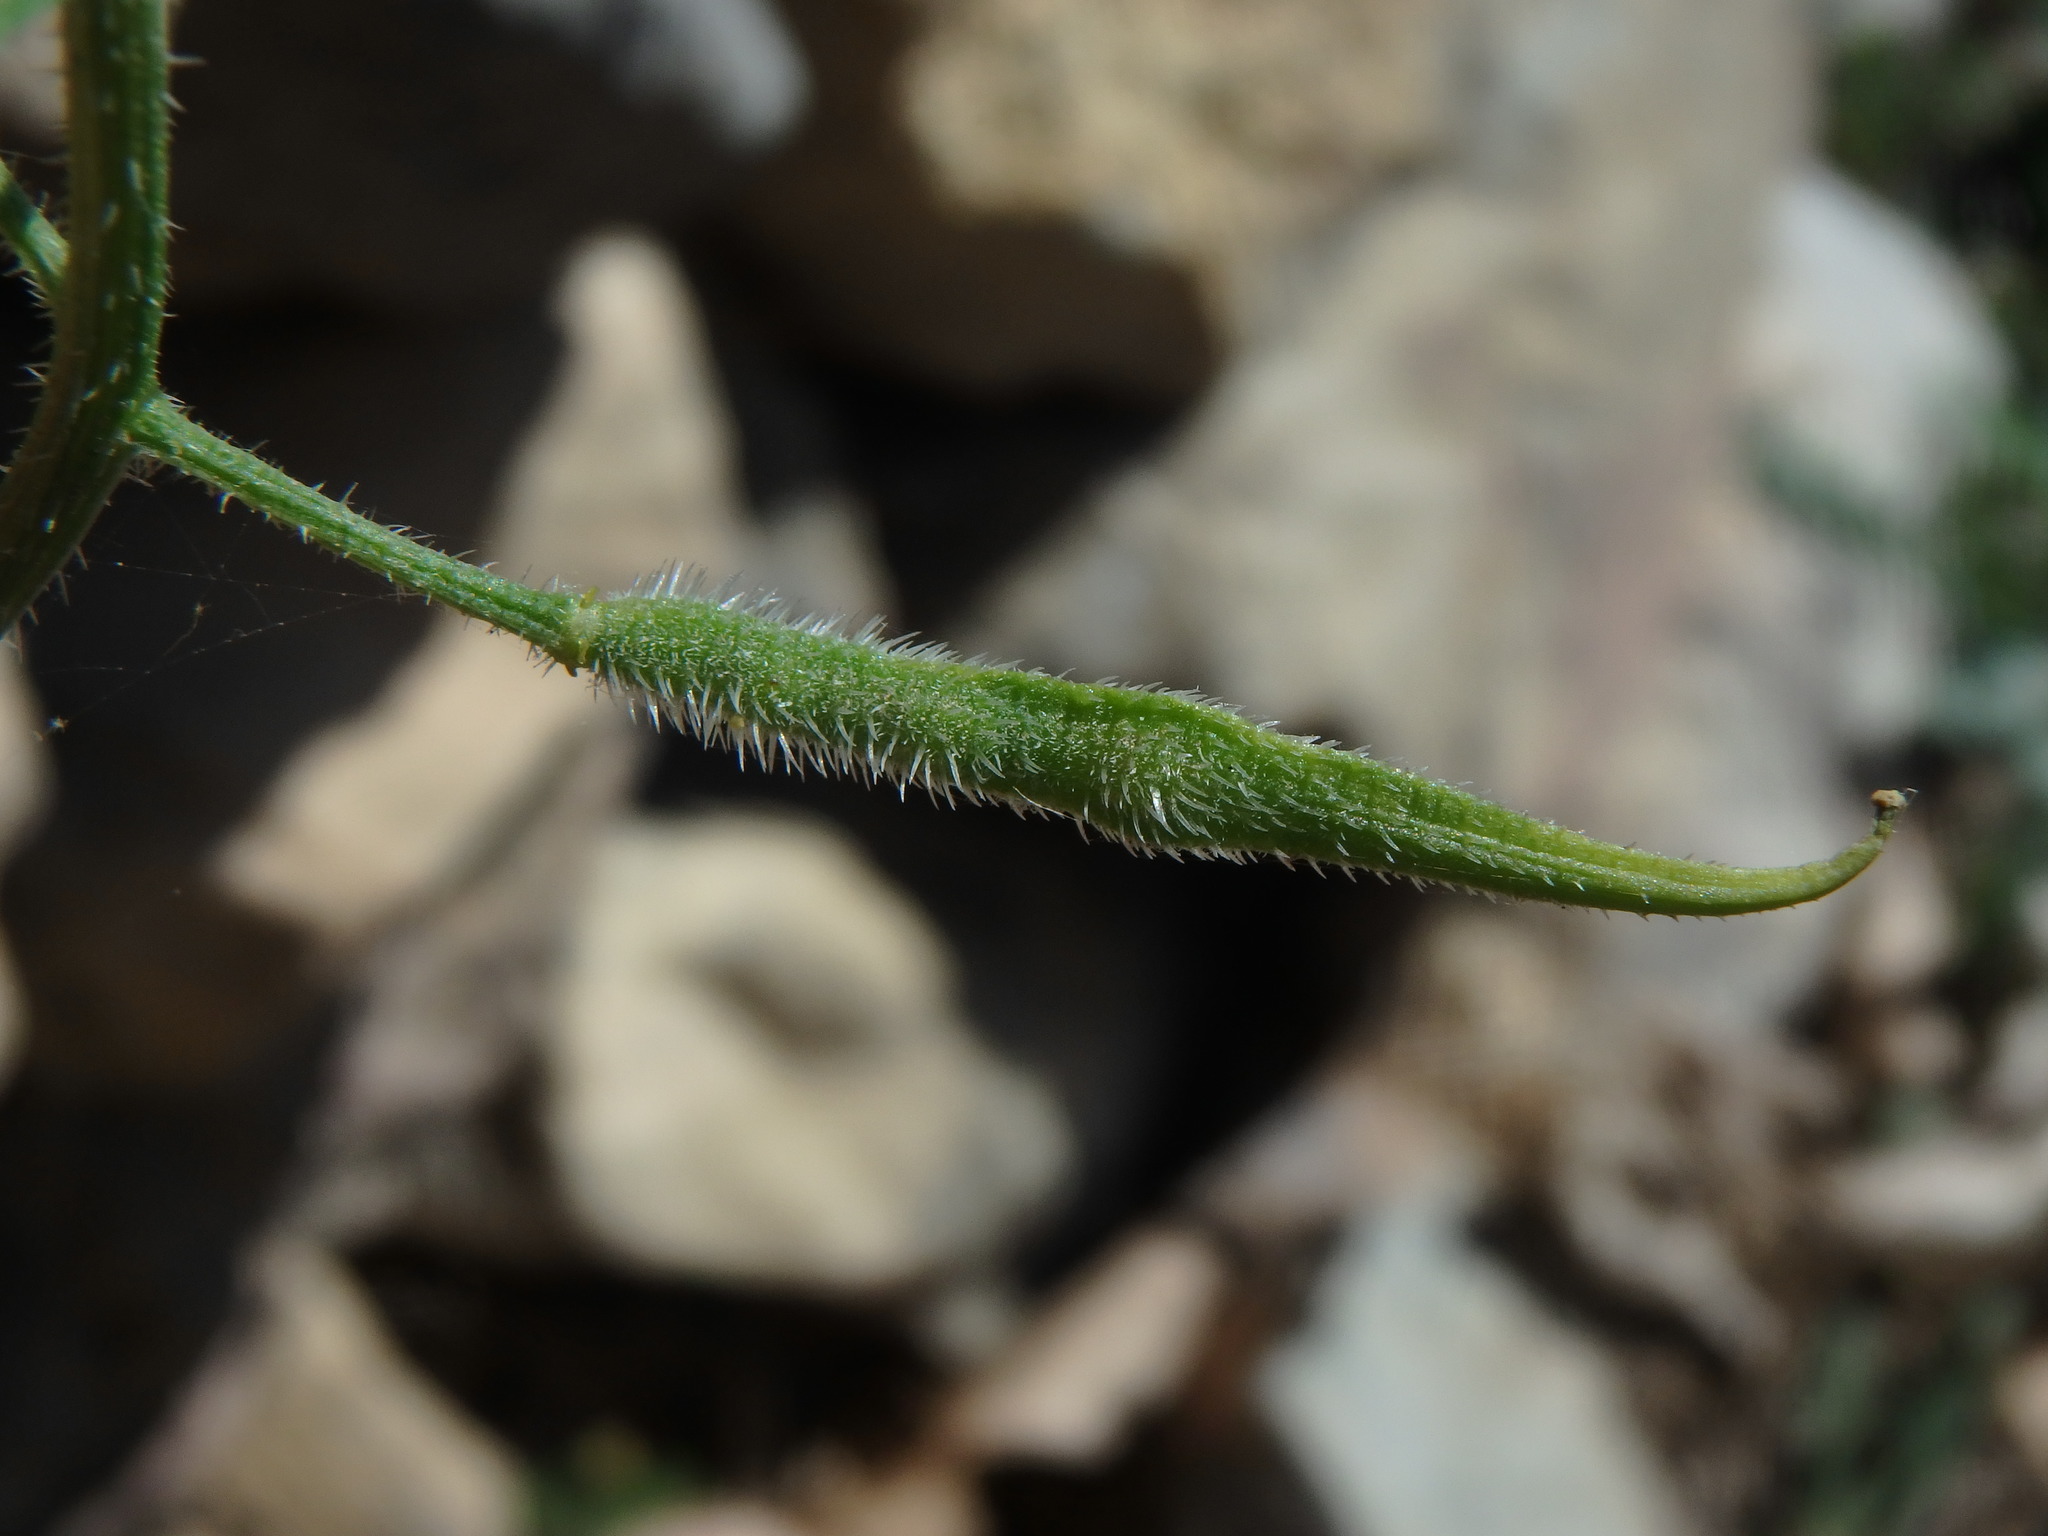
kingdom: Plantae
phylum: Tracheophyta
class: Magnoliopsida
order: Brassicales
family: Brassicaceae
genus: Sinapis
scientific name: Sinapis alba
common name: White mustard
